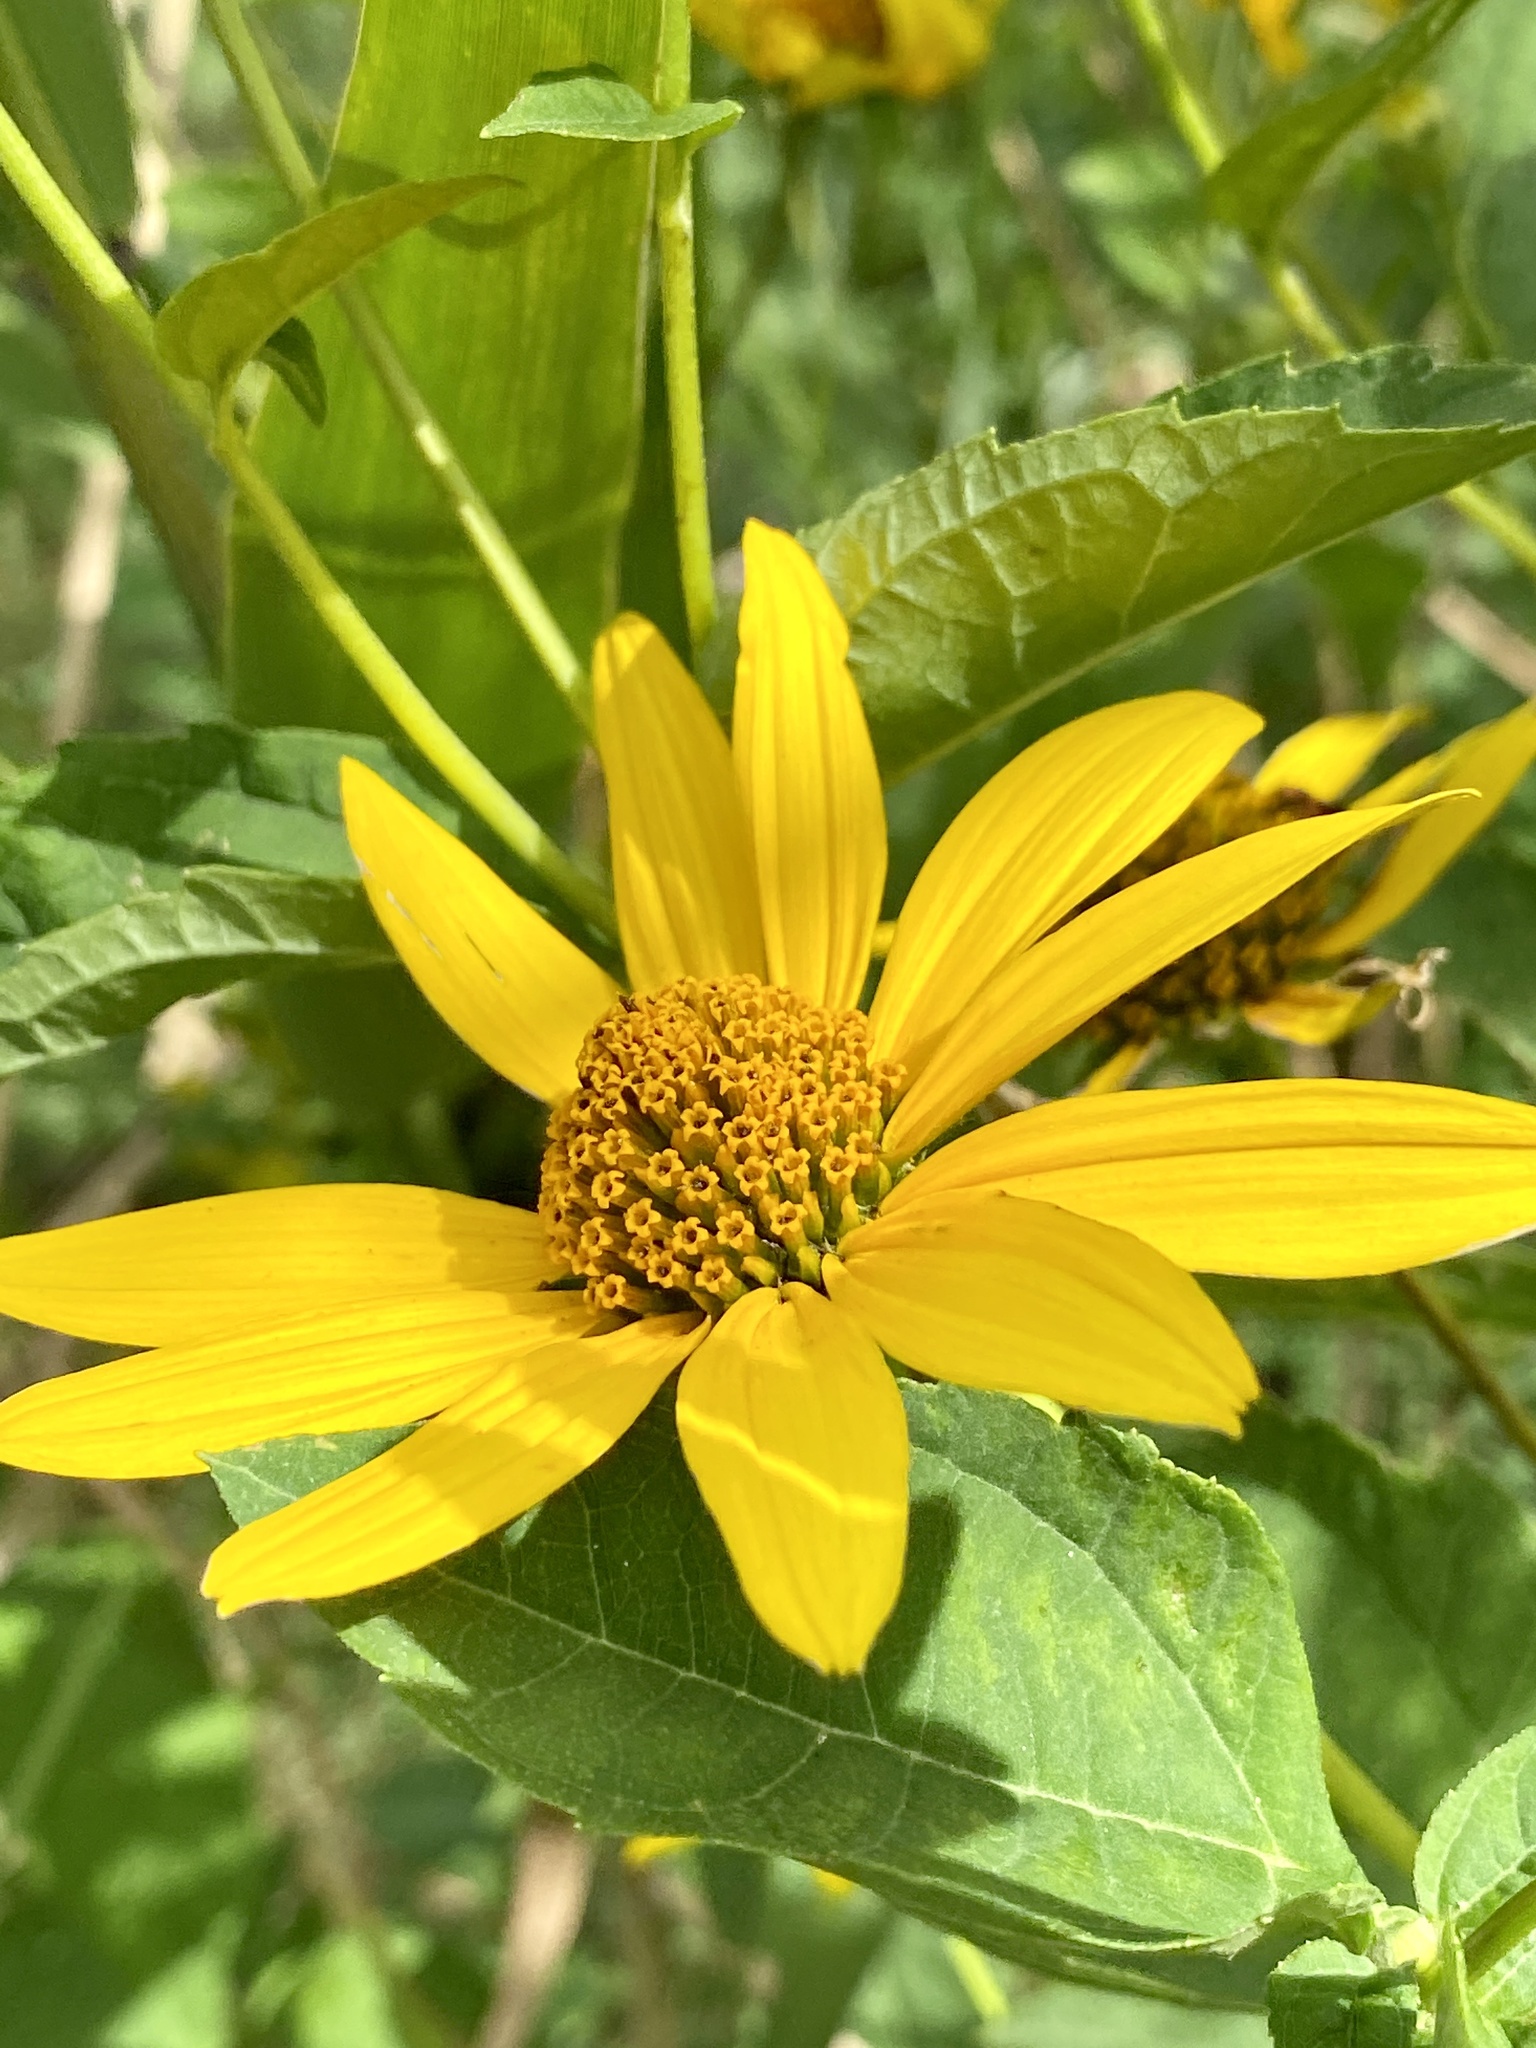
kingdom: Plantae
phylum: Tracheophyta
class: Magnoliopsida
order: Asterales
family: Asteraceae
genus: Heliopsis
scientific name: Heliopsis helianthoides
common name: False sunflower
